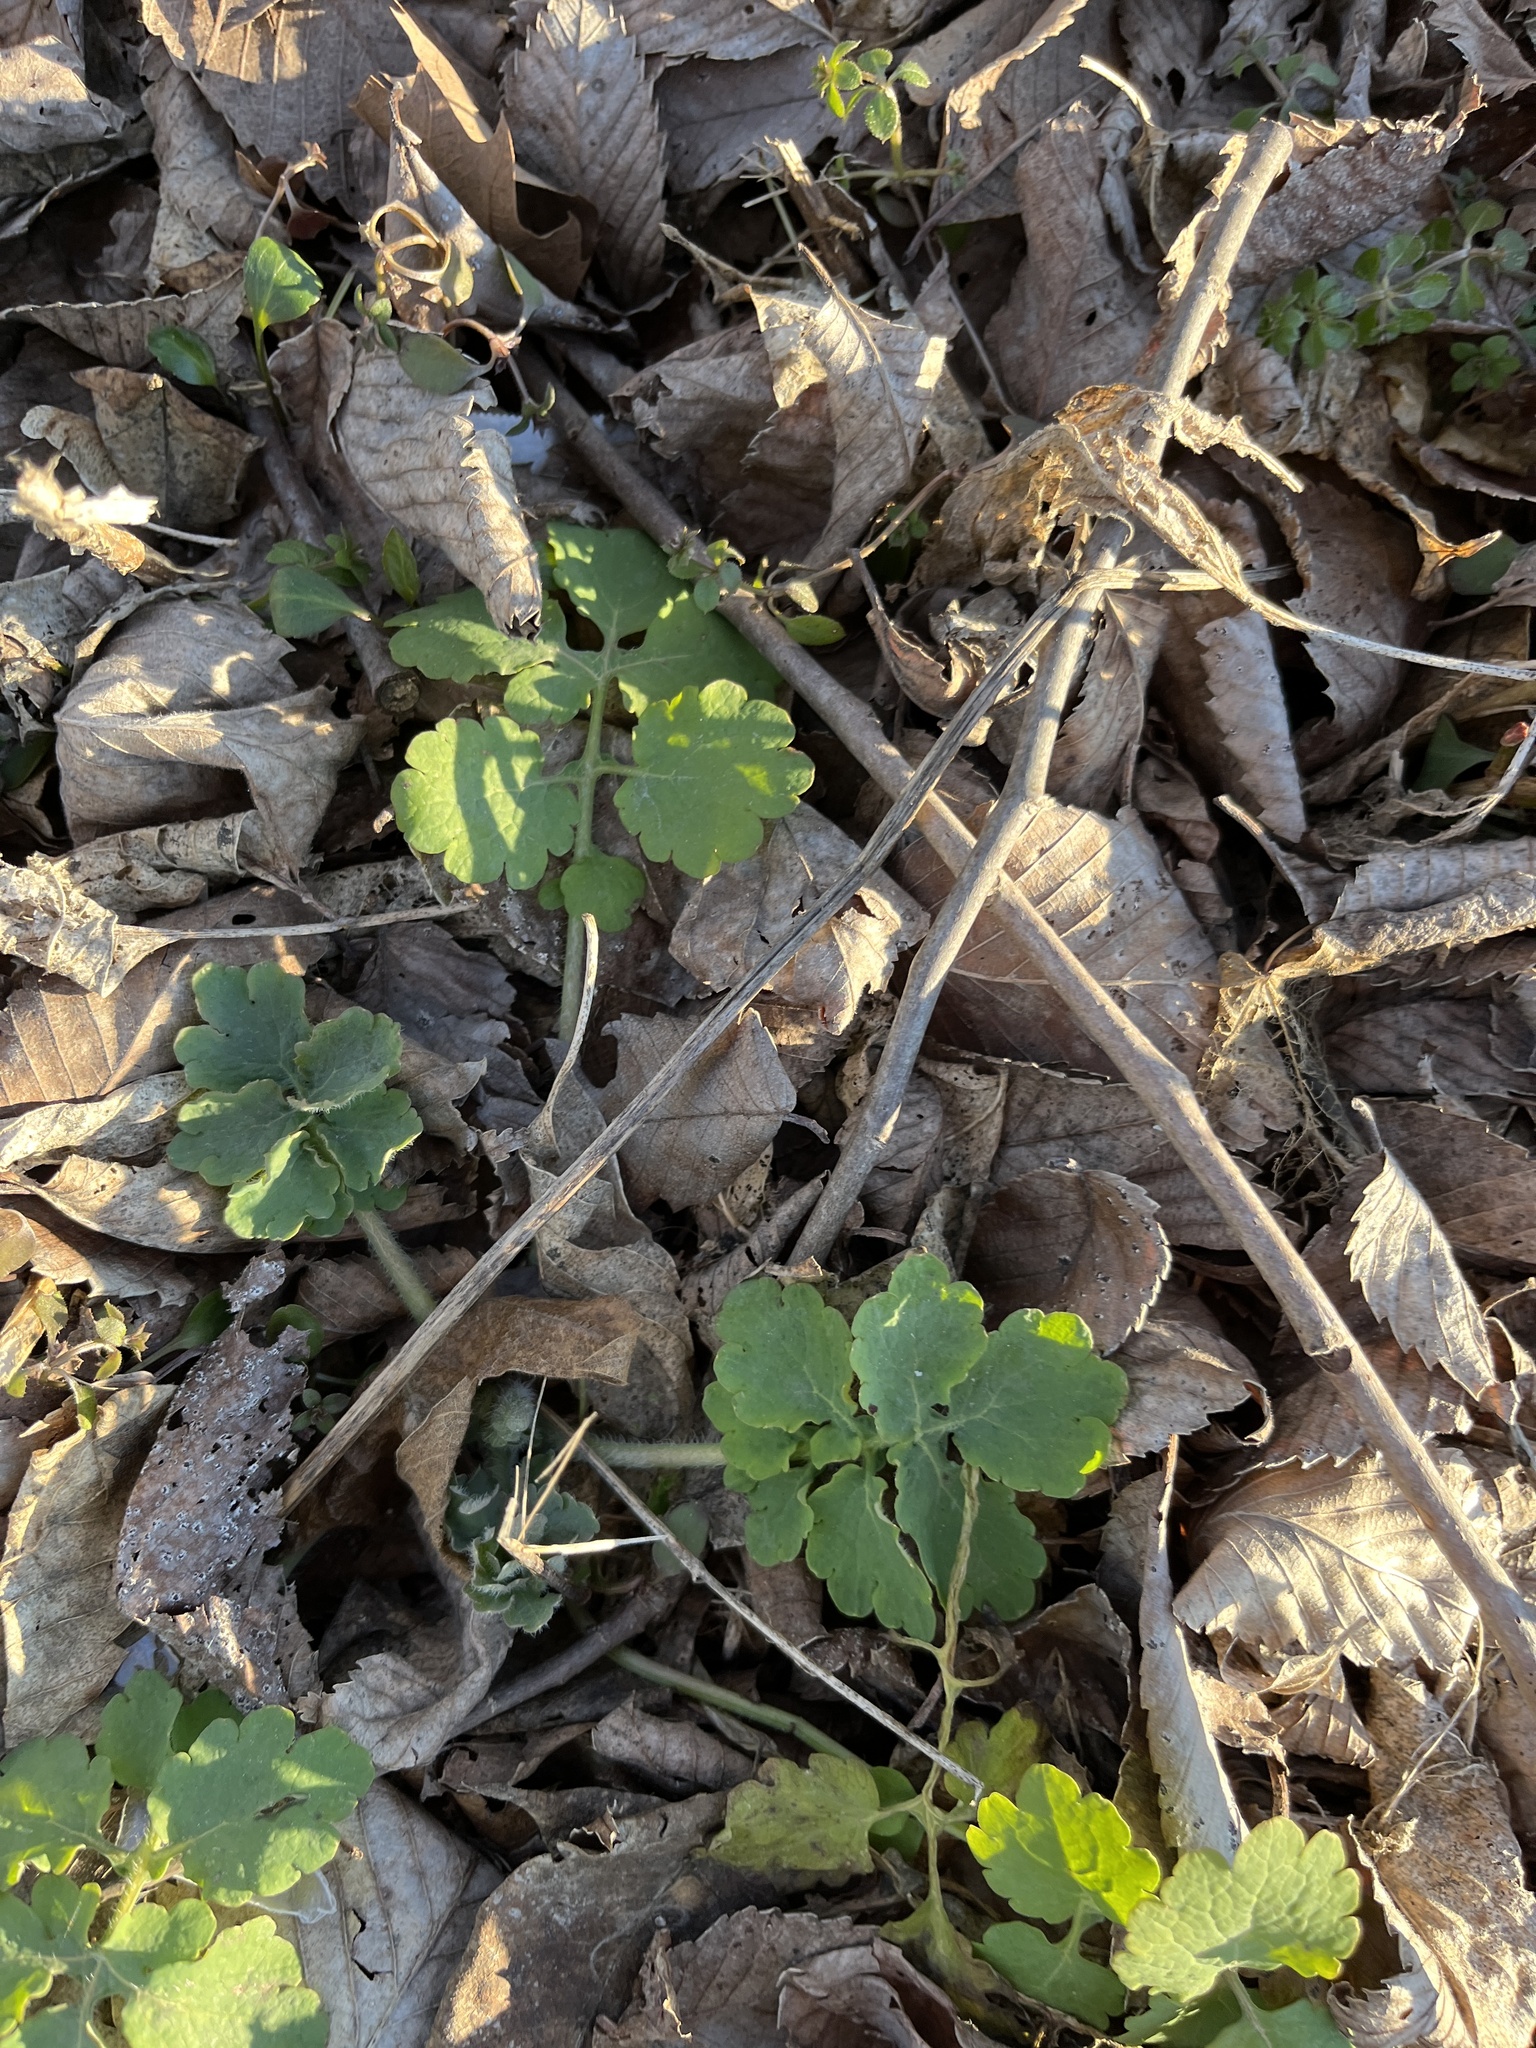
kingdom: Plantae
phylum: Tracheophyta
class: Magnoliopsida
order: Ranunculales
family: Papaveraceae
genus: Chelidonium
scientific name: Chelidonium majus
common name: Greater celandine
